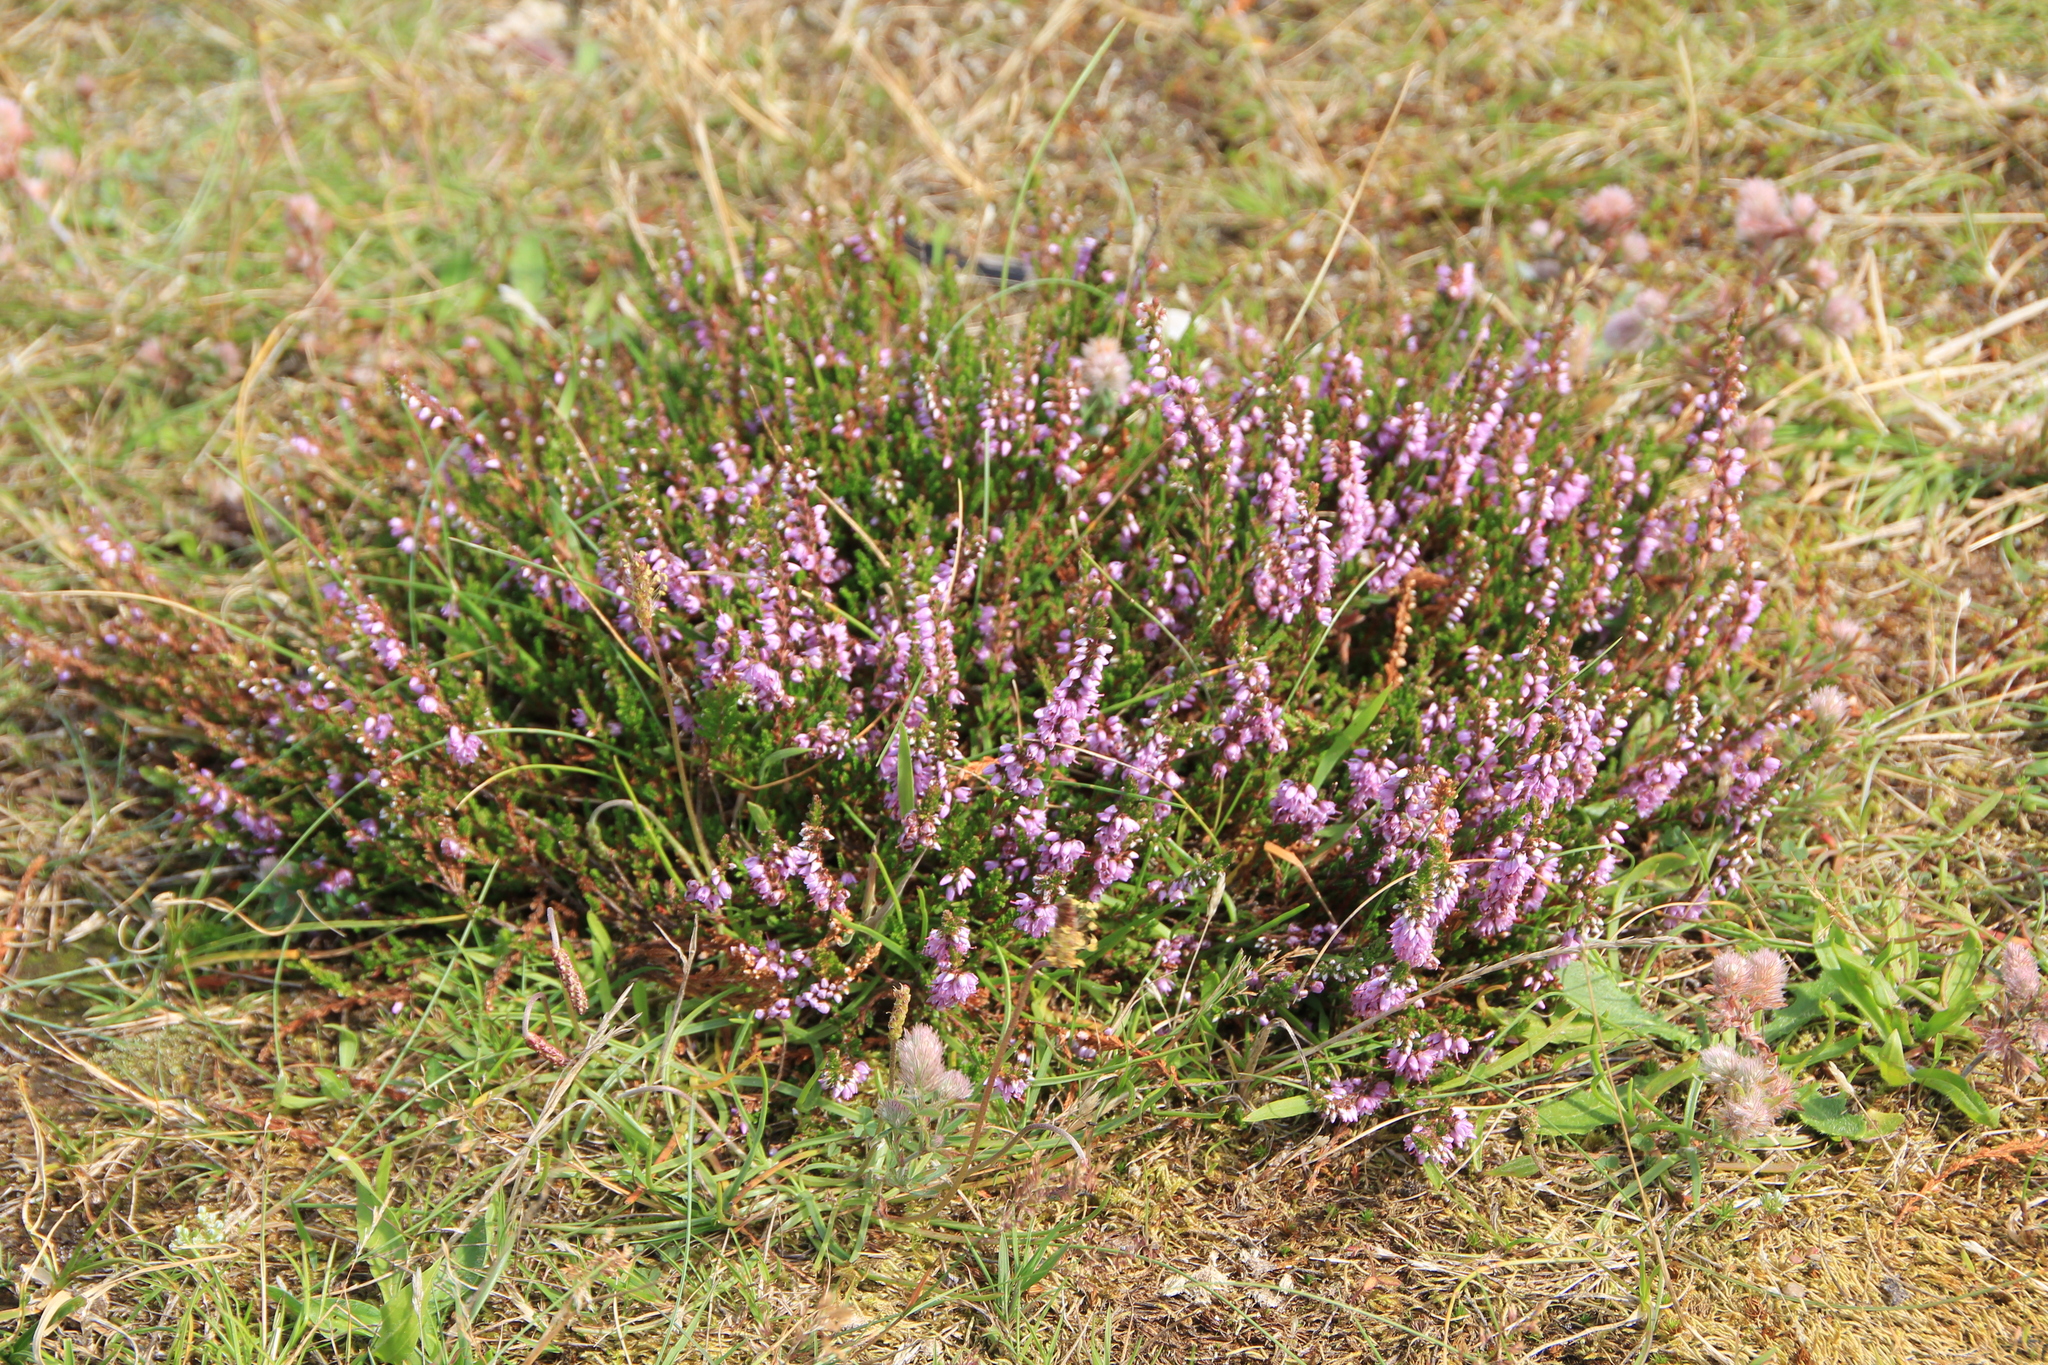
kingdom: Plantae
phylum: Tracheophyta
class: Magnoliopsida
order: Ericales
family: Ericaceae
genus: Calluna
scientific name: Calluna vulgaris
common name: Heather
